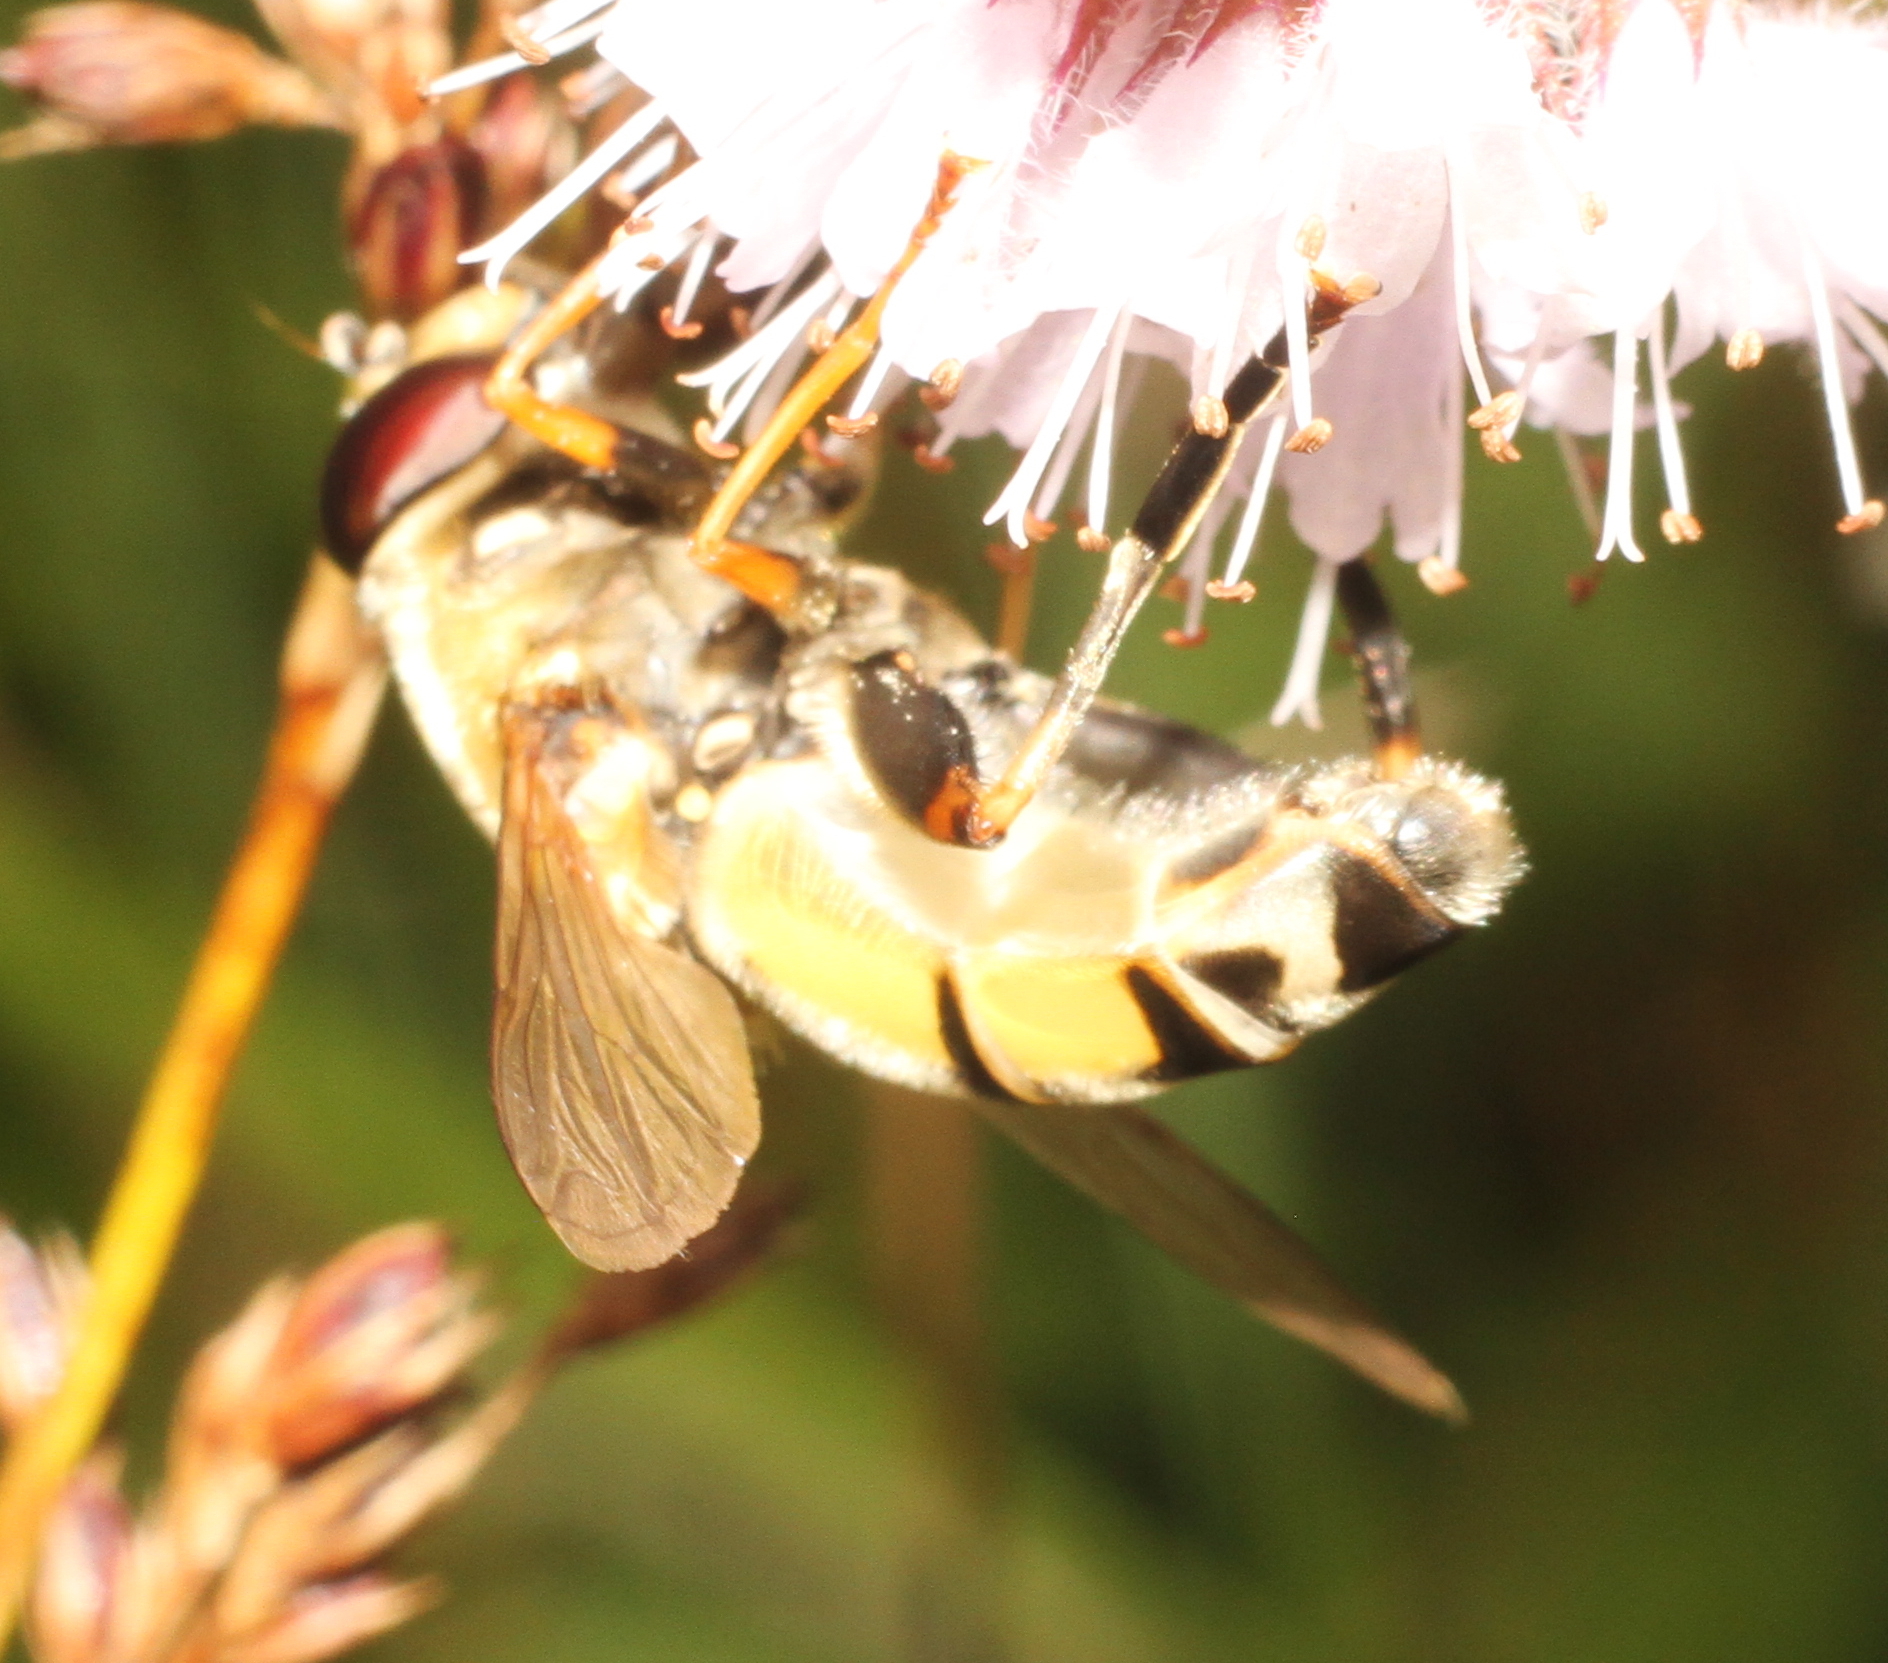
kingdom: Animalia
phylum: Arthropoda
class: Insecta
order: Diptera
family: Syrphidae
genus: Helophilus
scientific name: Helophilus trivittatus
